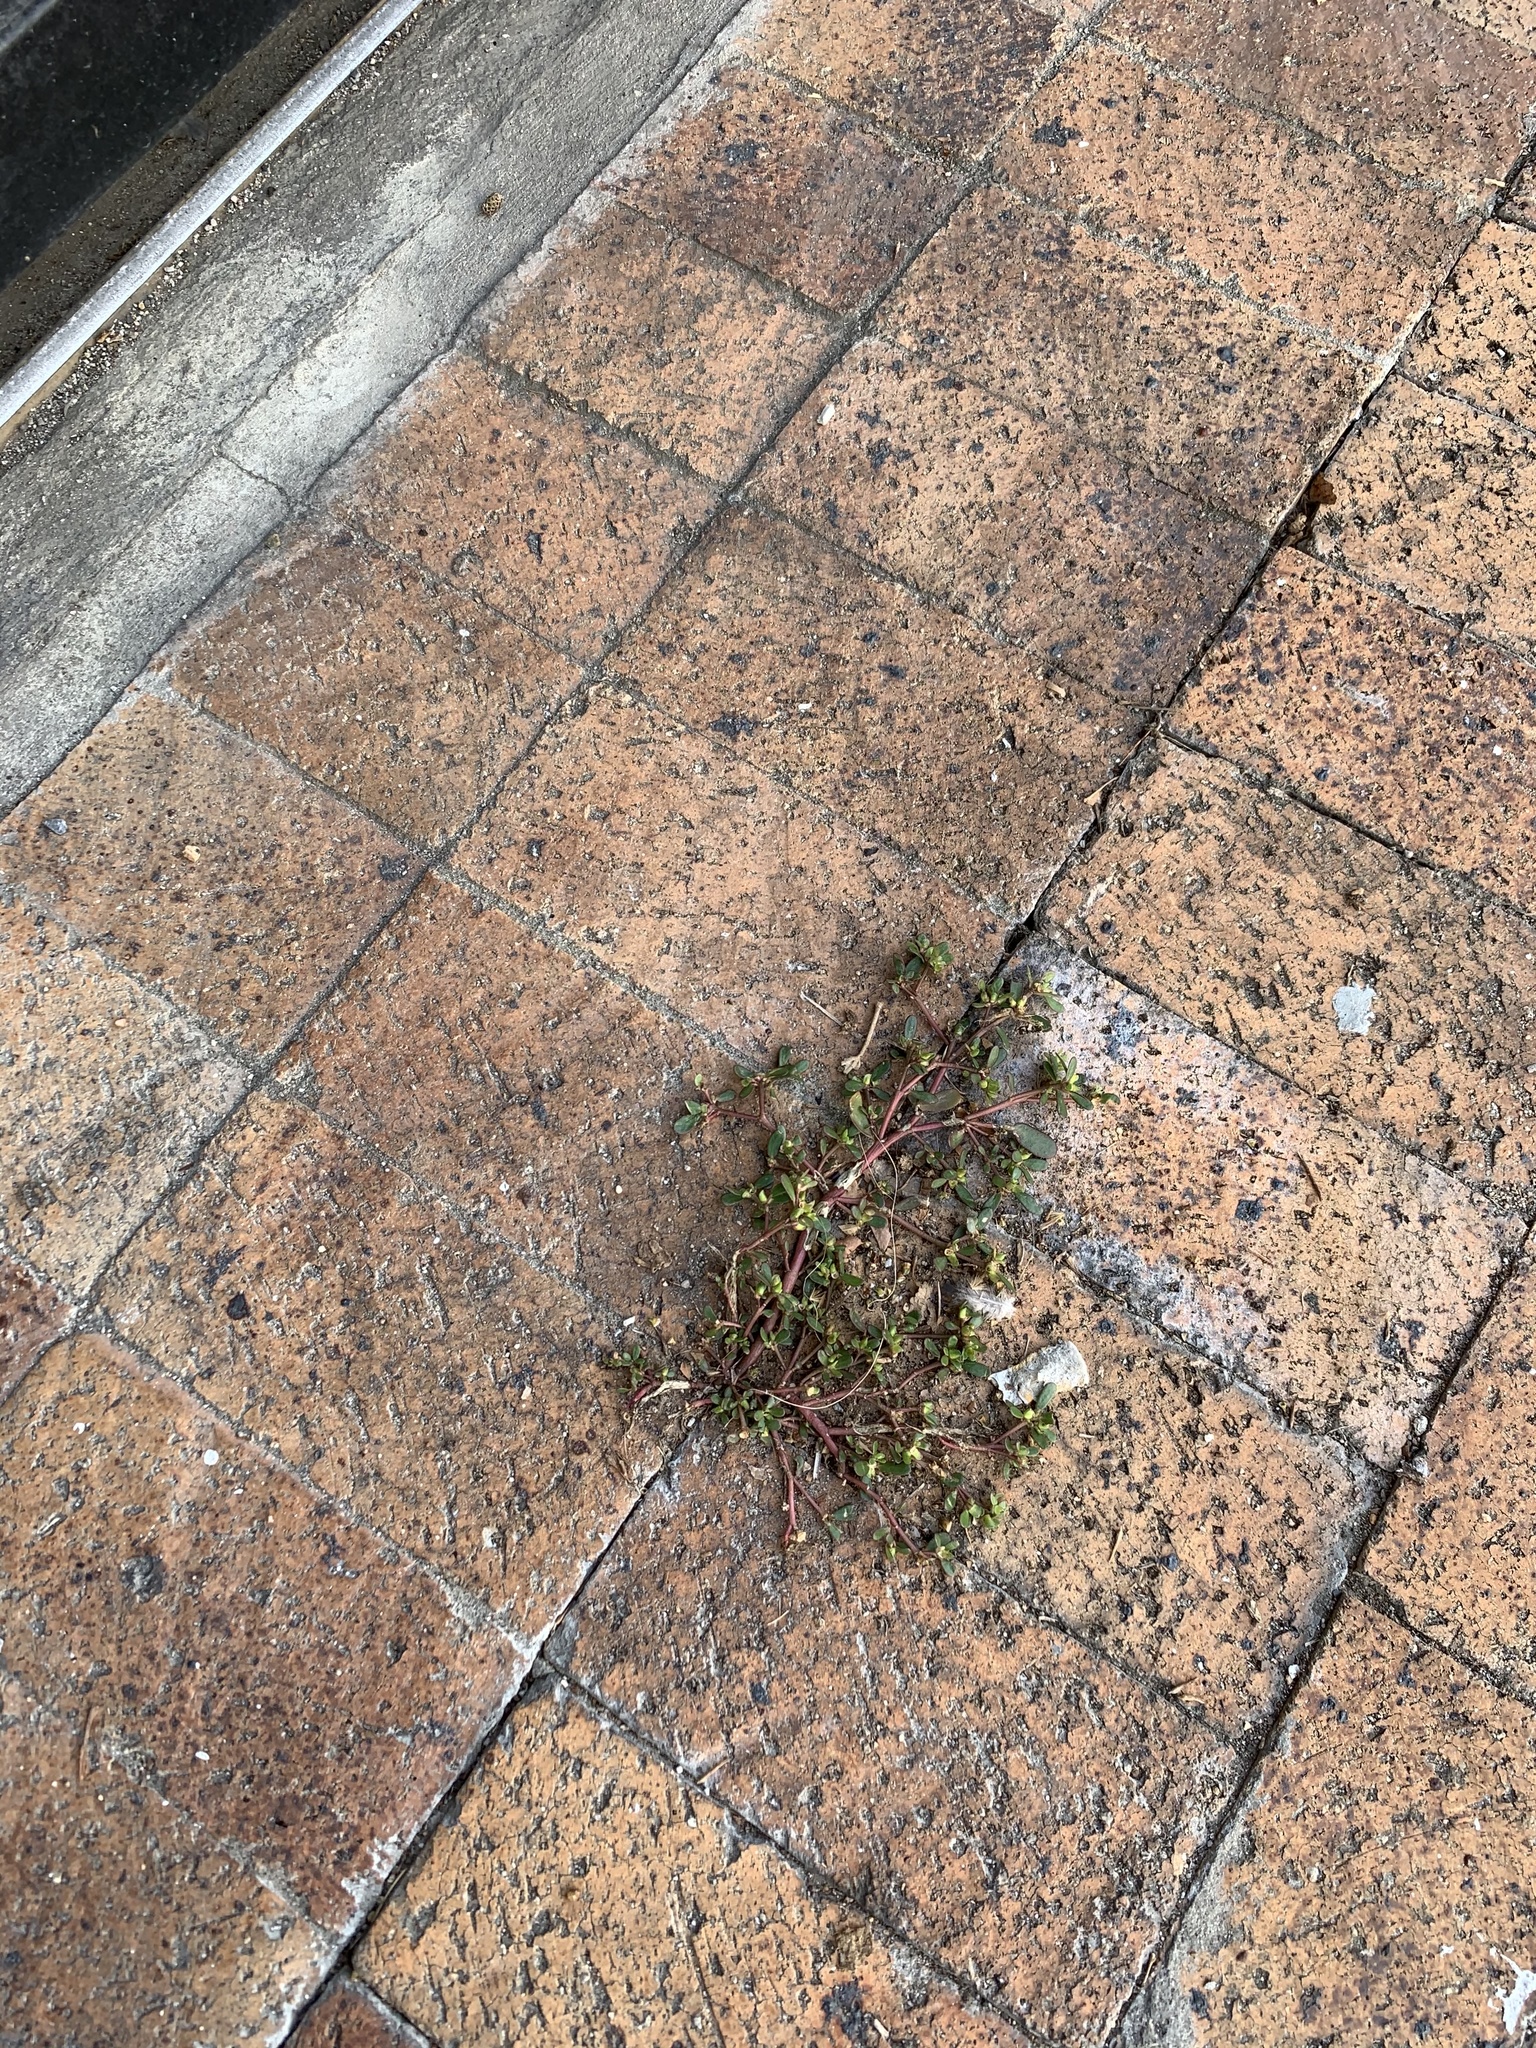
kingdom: Plantae
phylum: Tracheophyta
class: Magnoliopsida
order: Caryophyllales
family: Portulacaceae
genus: Portulaca
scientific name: Portulaca oleracea
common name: Common purslane
